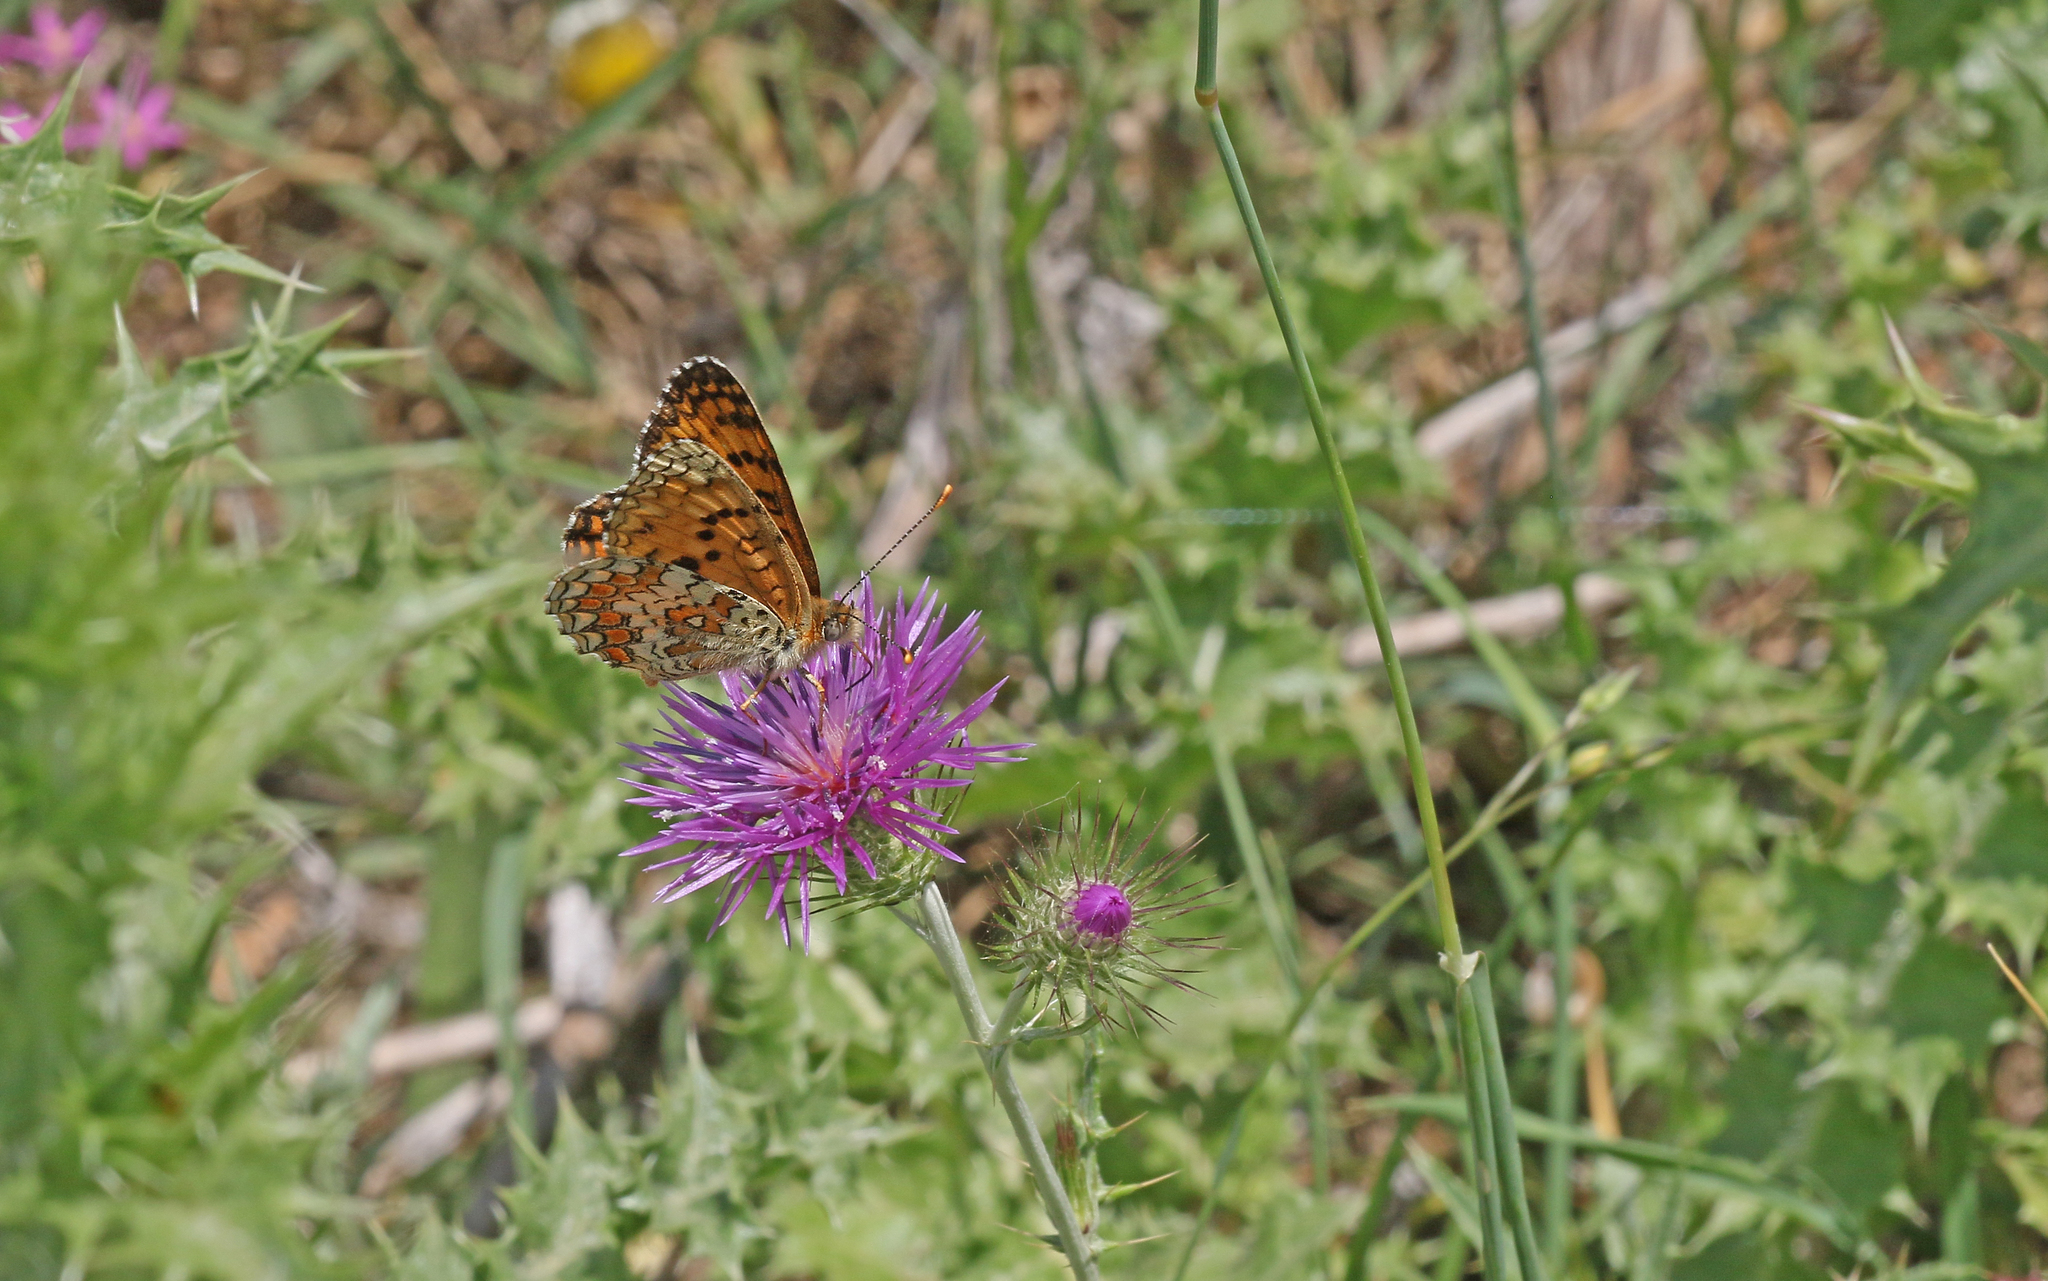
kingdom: Animalia
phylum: Arthropoda
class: Insecta
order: Lepidoptera
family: Nymphalidae
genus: Melitaea
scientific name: Melitaea aetherie
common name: Aetherie fritillary
